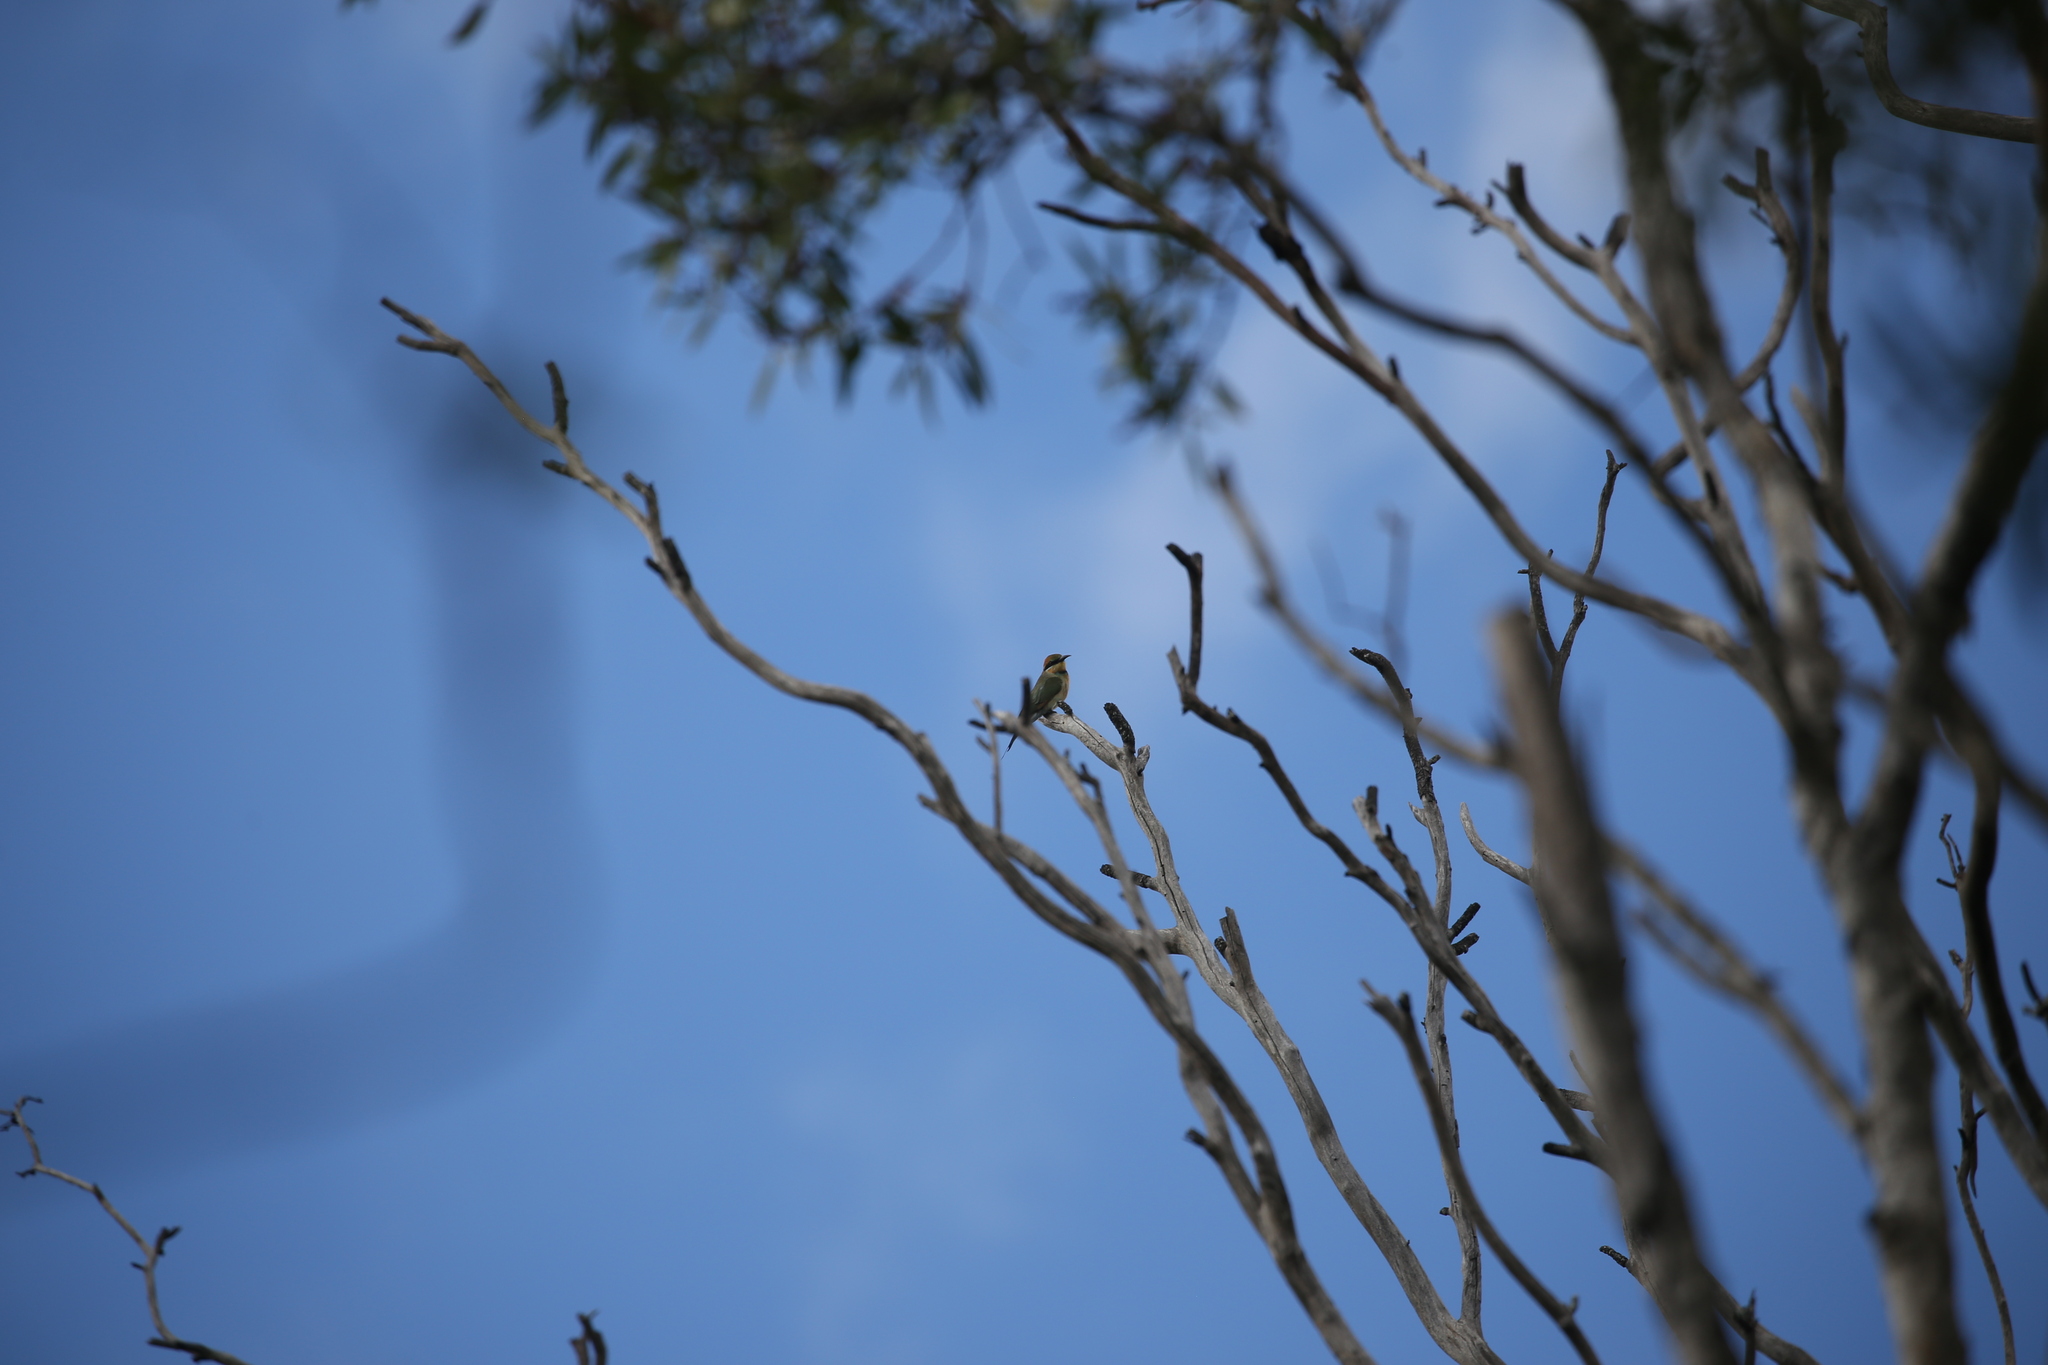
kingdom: Animalia
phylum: Chordata
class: Aves
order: Coraciiformes
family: Meropidae
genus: Merops
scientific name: Merops ornatus
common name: Rainbow bee-eater
